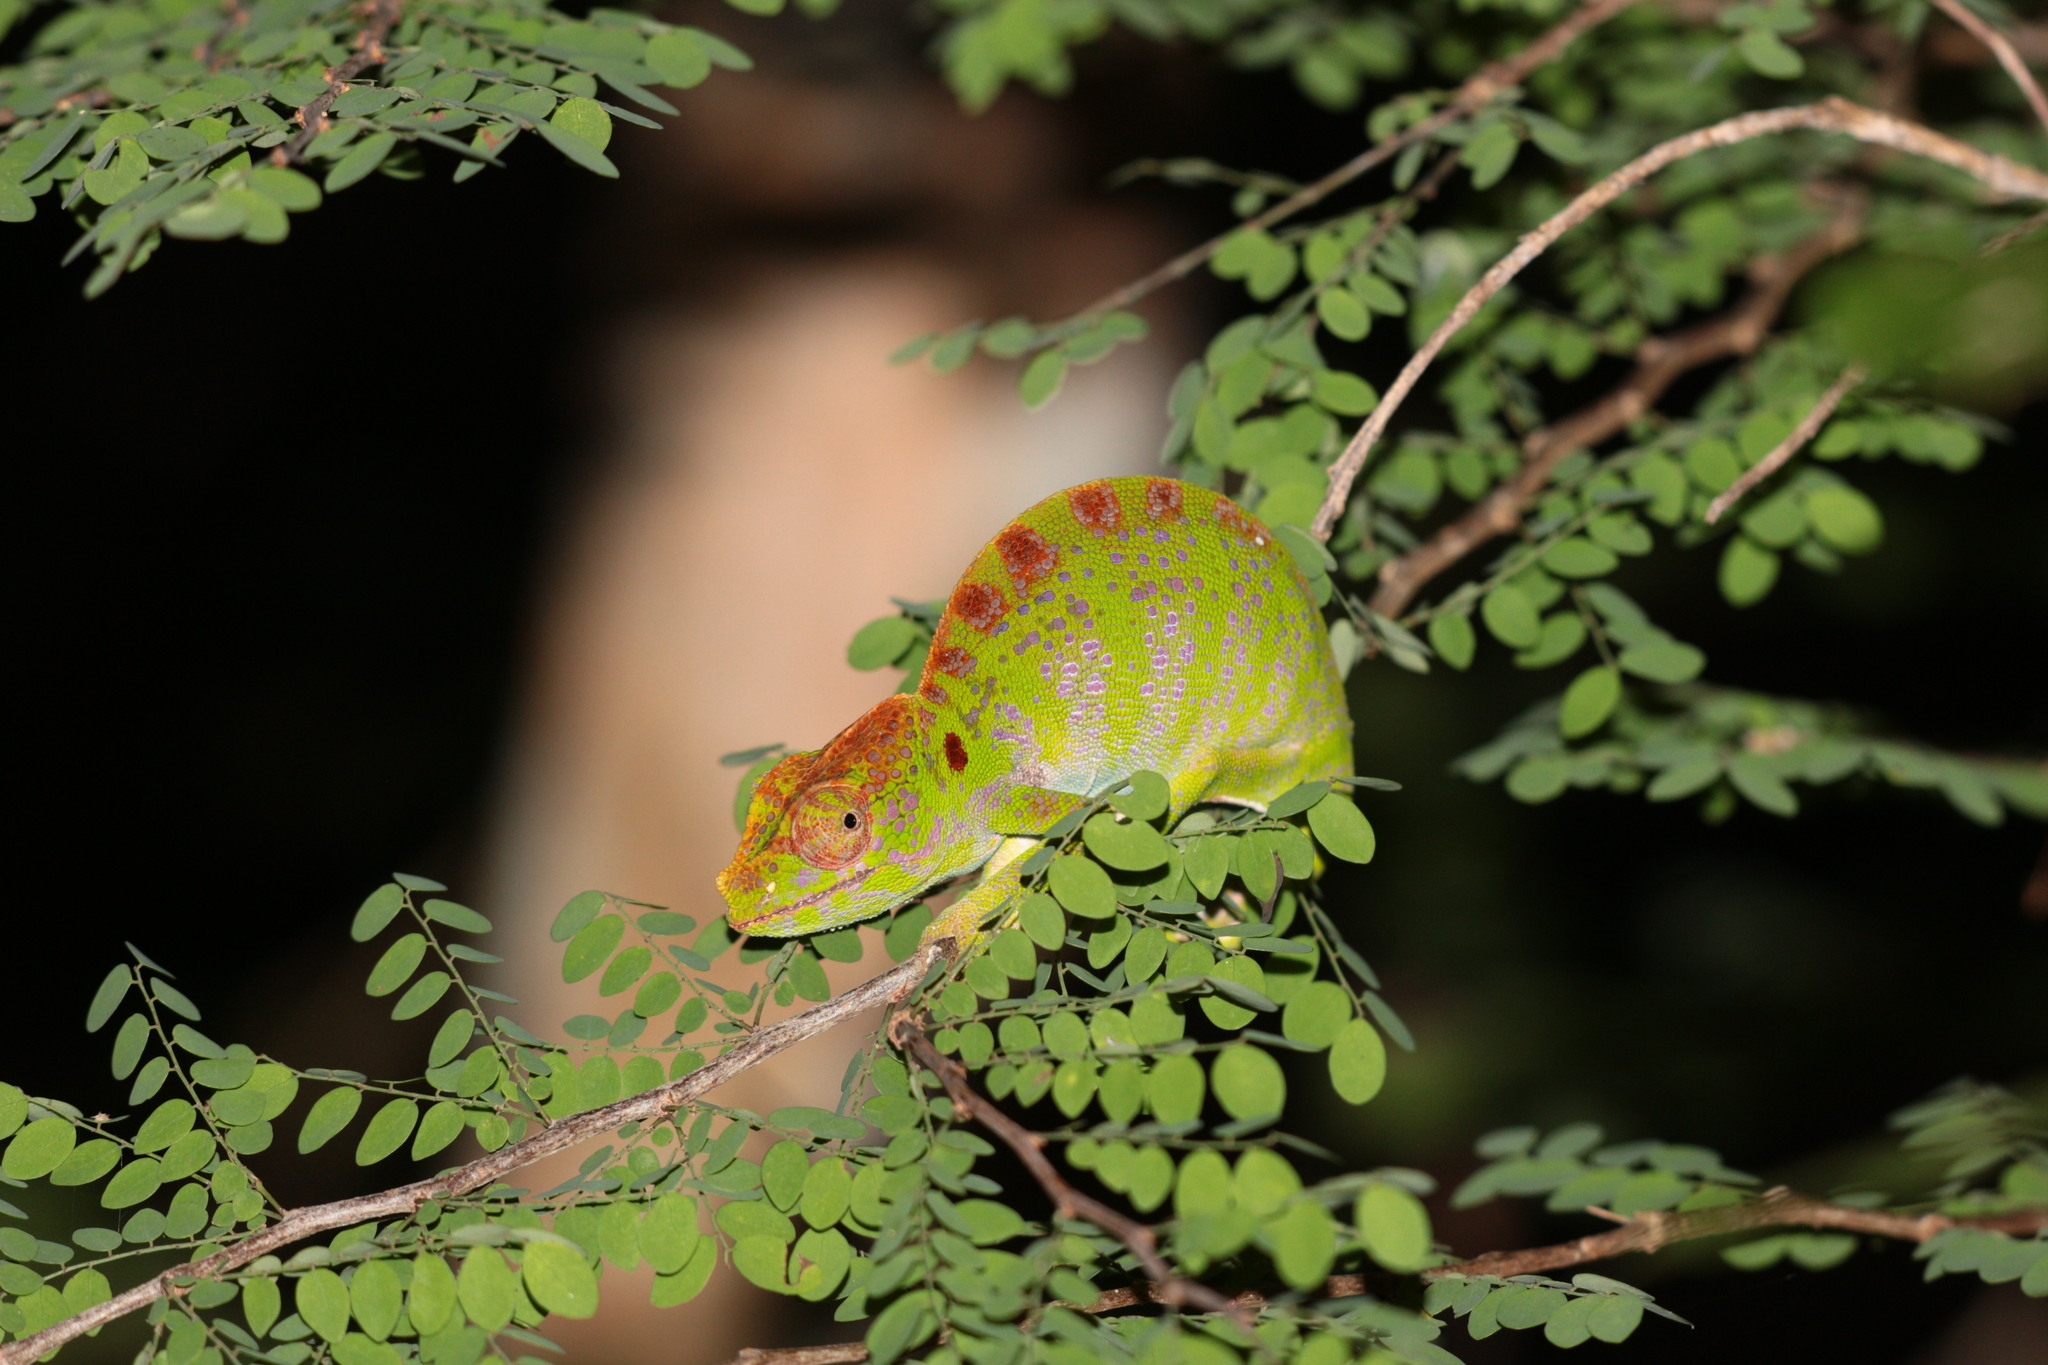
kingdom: Animalia
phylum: Chordata
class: Squamata
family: Chamaeleonidae
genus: Furcifer
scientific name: Furcifer labordi
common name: Laborde's chameleon
